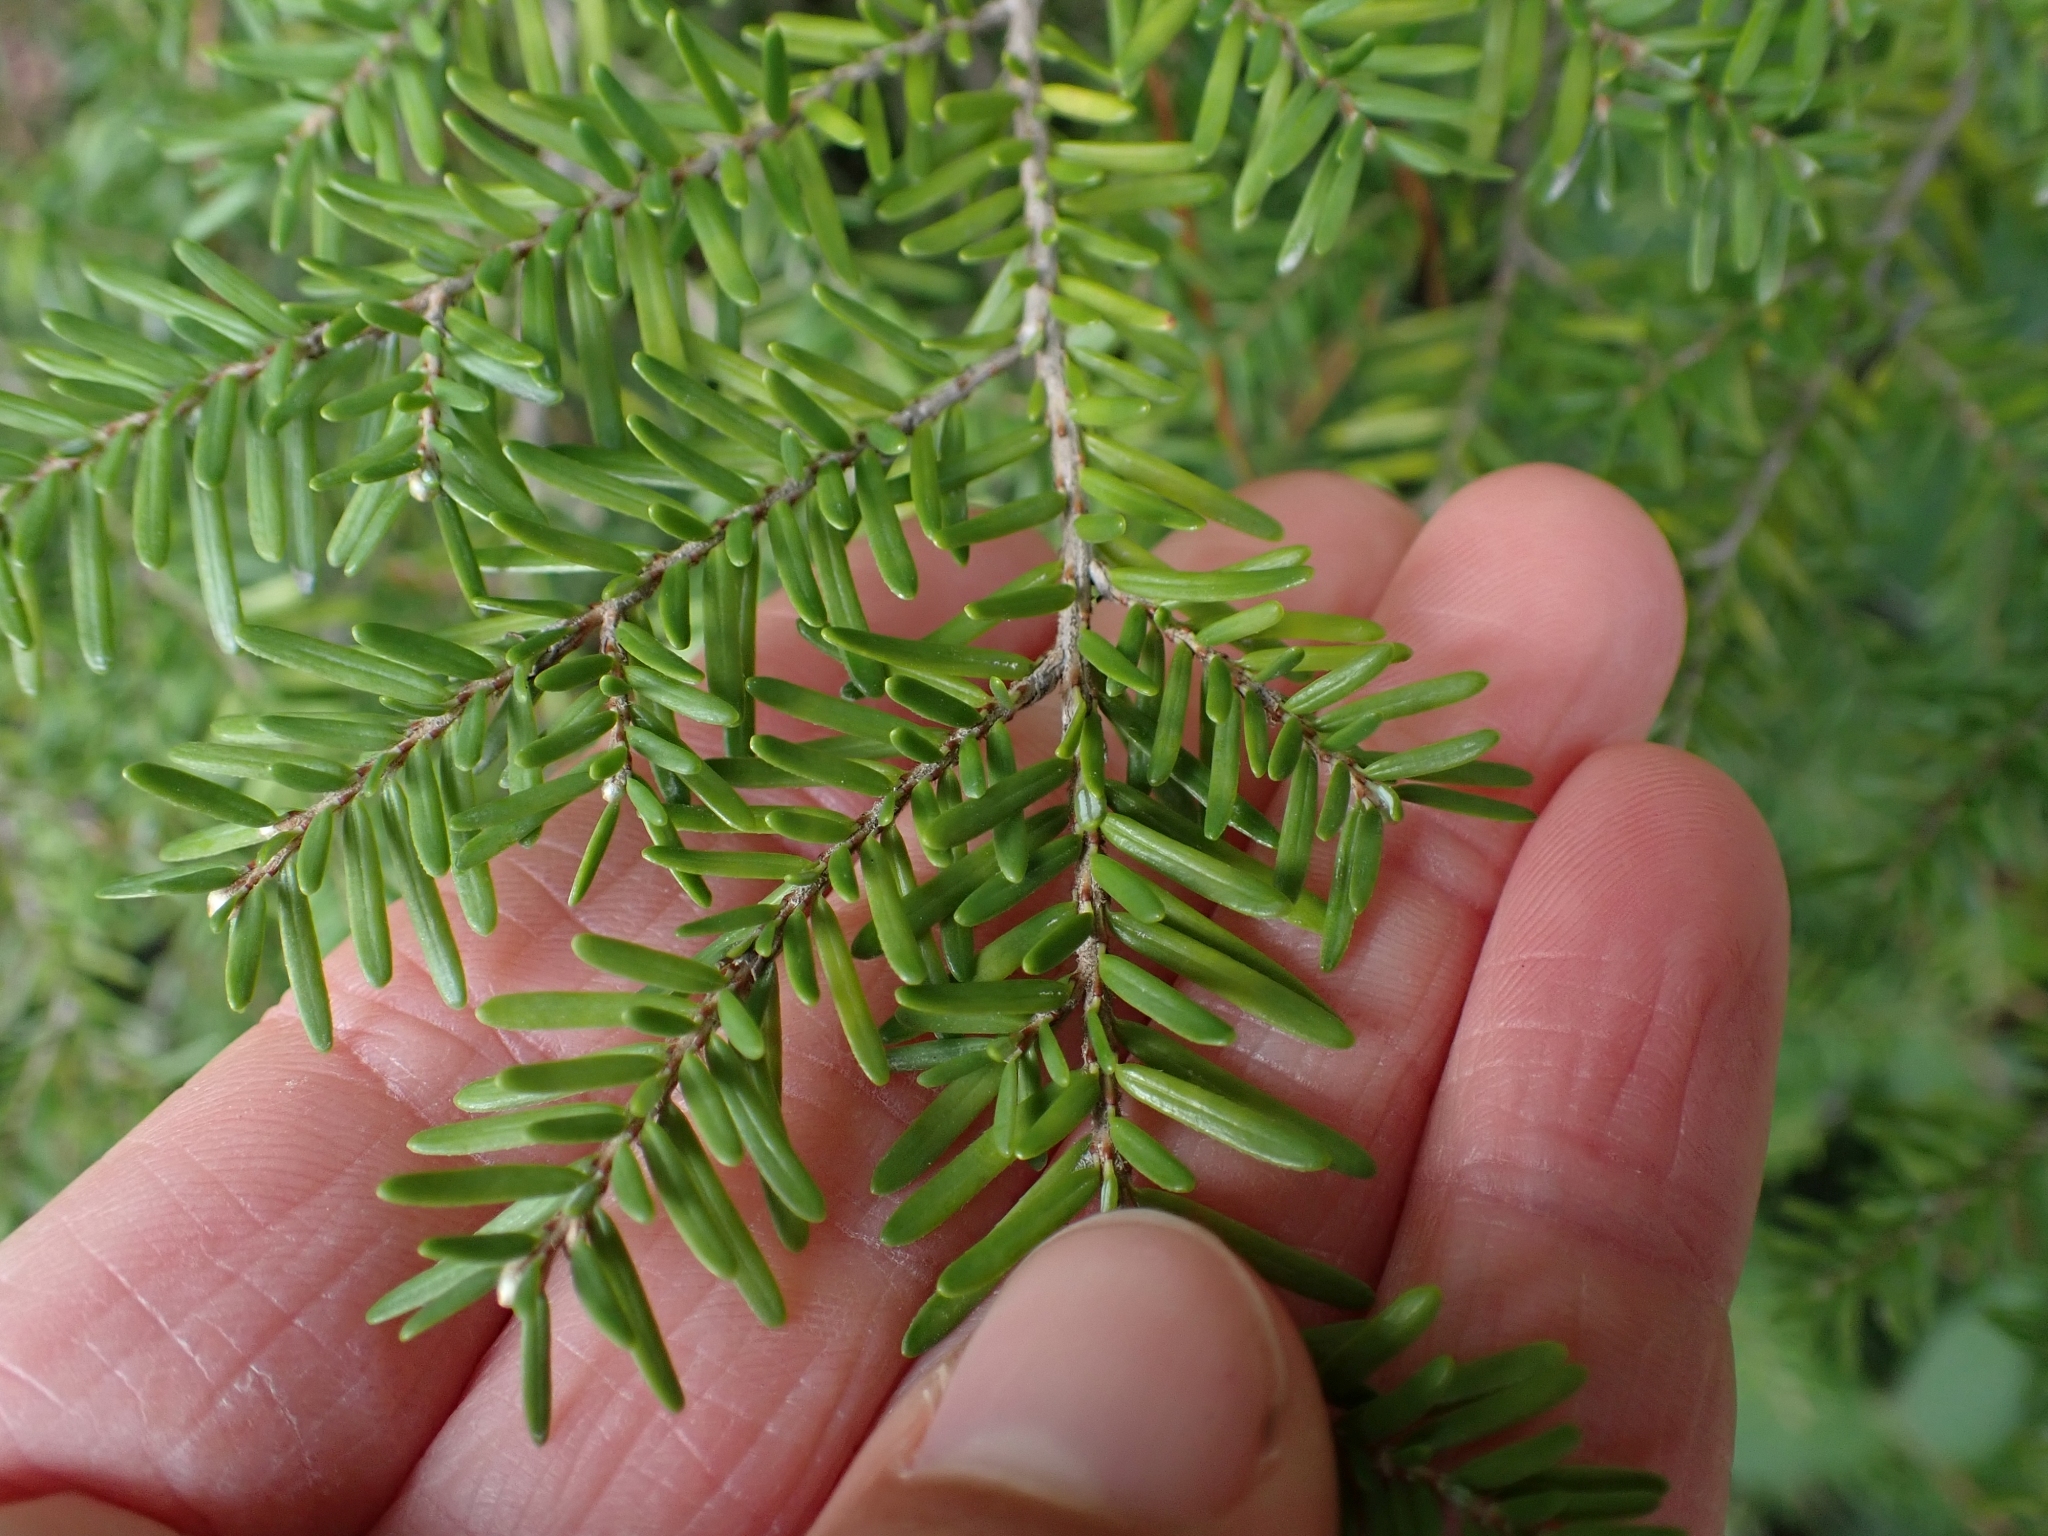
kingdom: Plantae
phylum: Tracheophyta
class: Pinopsida
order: Pinales
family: Pinaceae
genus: Tsuga
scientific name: Tsuga heterophylla
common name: Western hemlock
